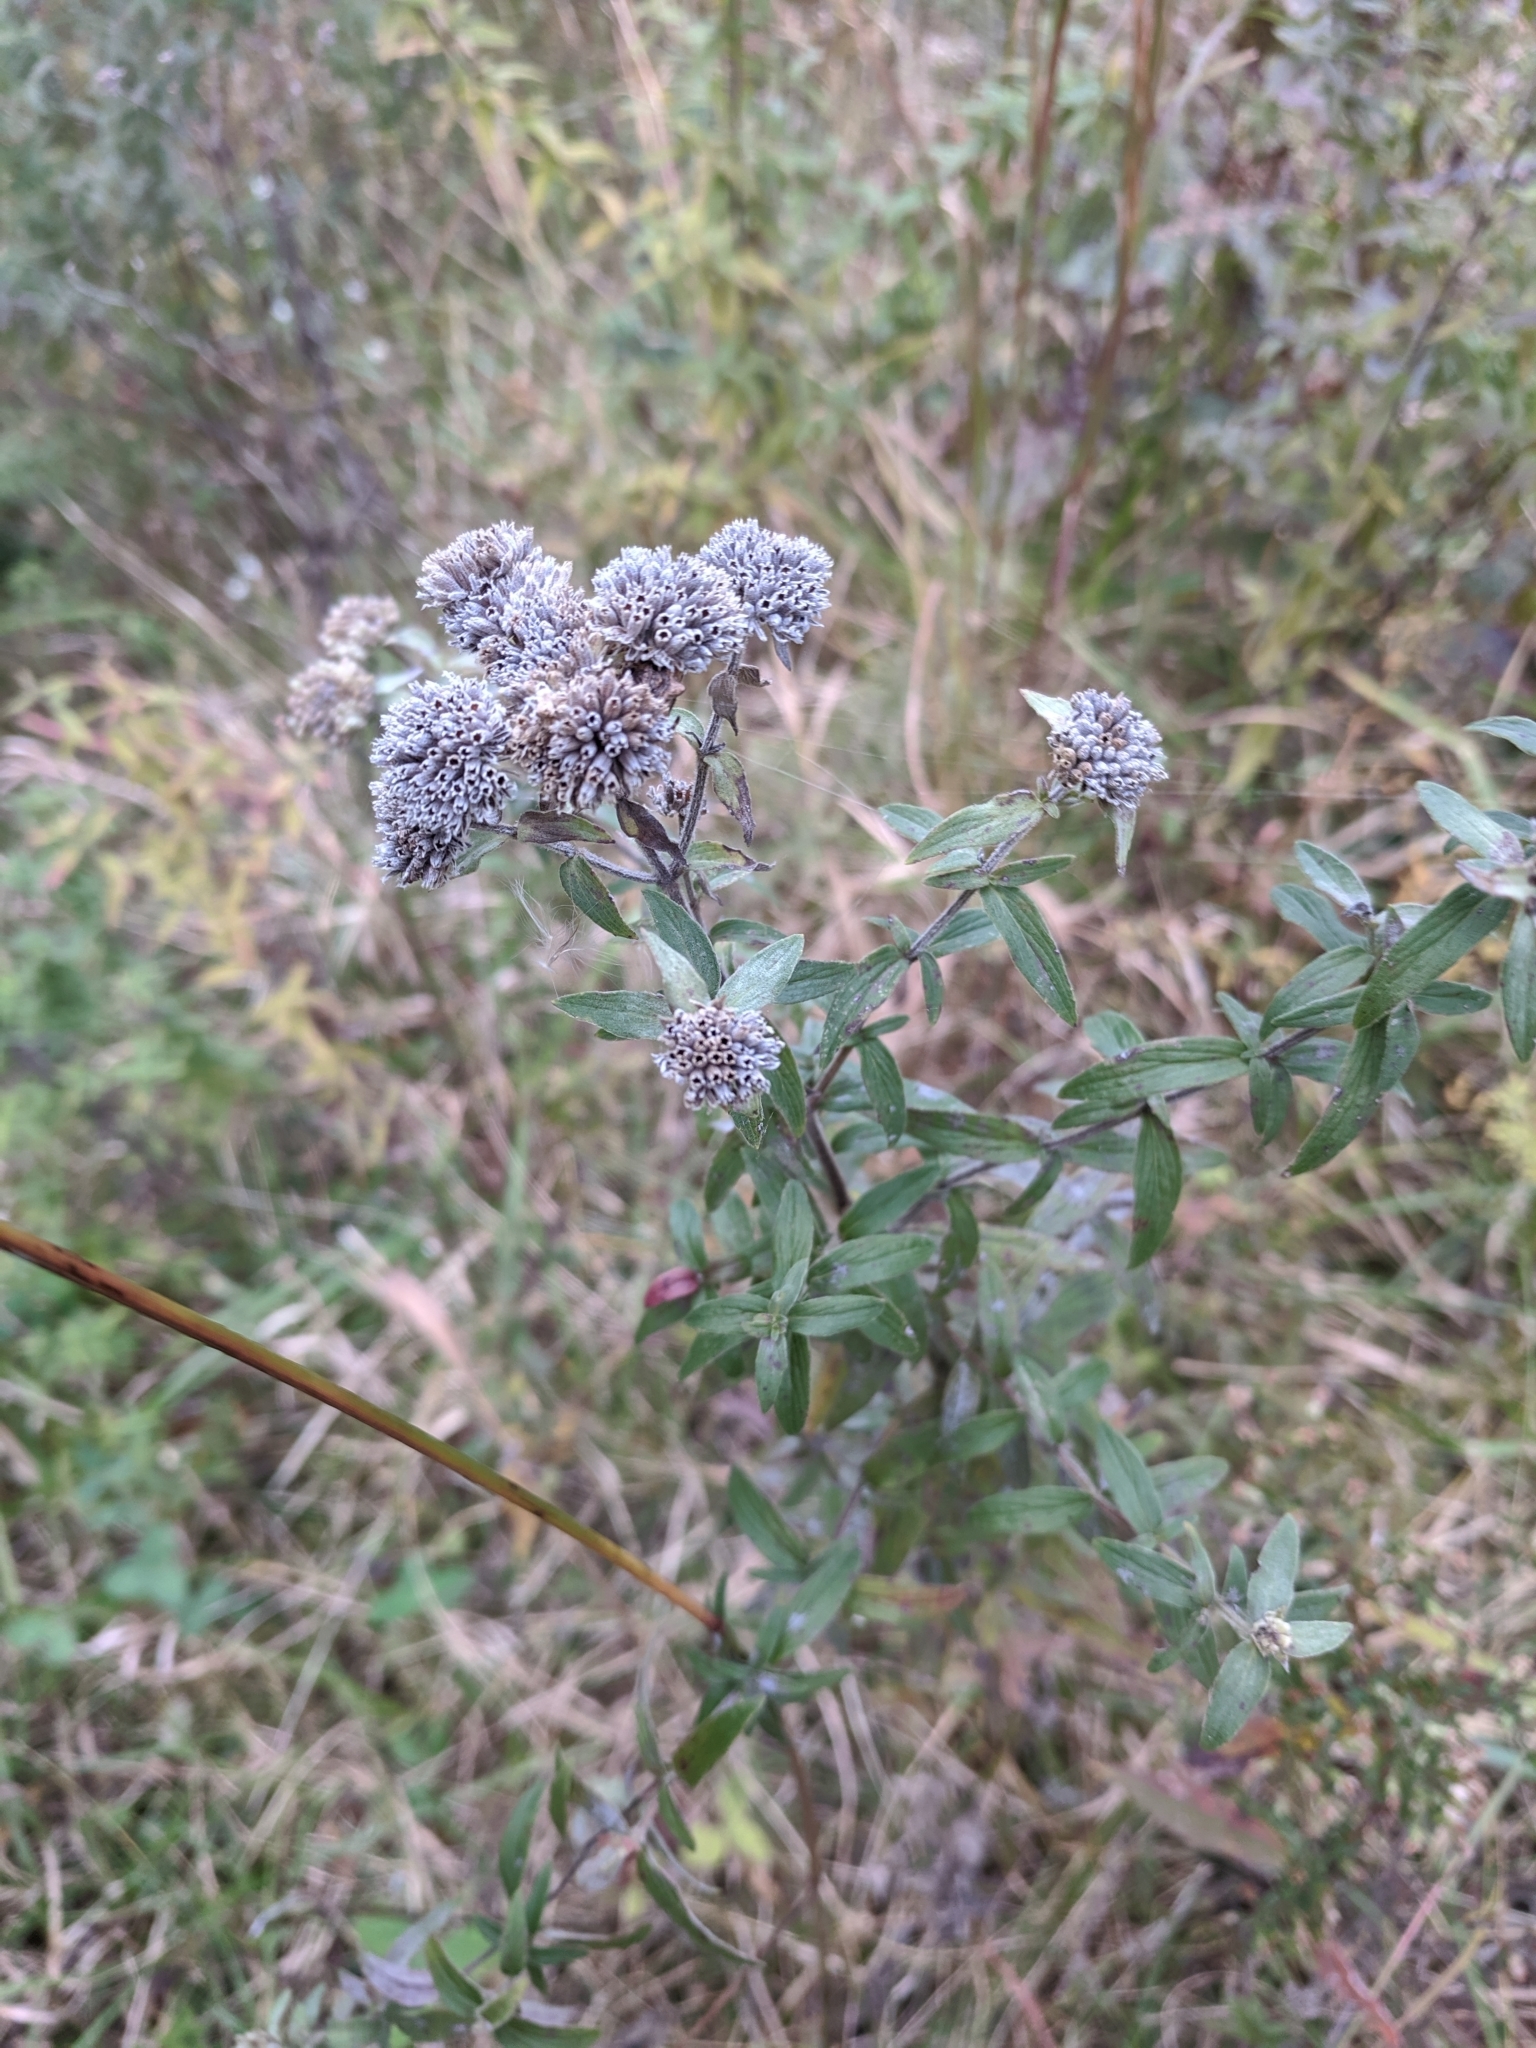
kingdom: Plantae
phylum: Tracheophyta
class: Magnoliopsida
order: Lamiales
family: Lamiaceae
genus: Pycnanthemum
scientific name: Pycnanthemum verticillatum
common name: Whorled mountain-mint
